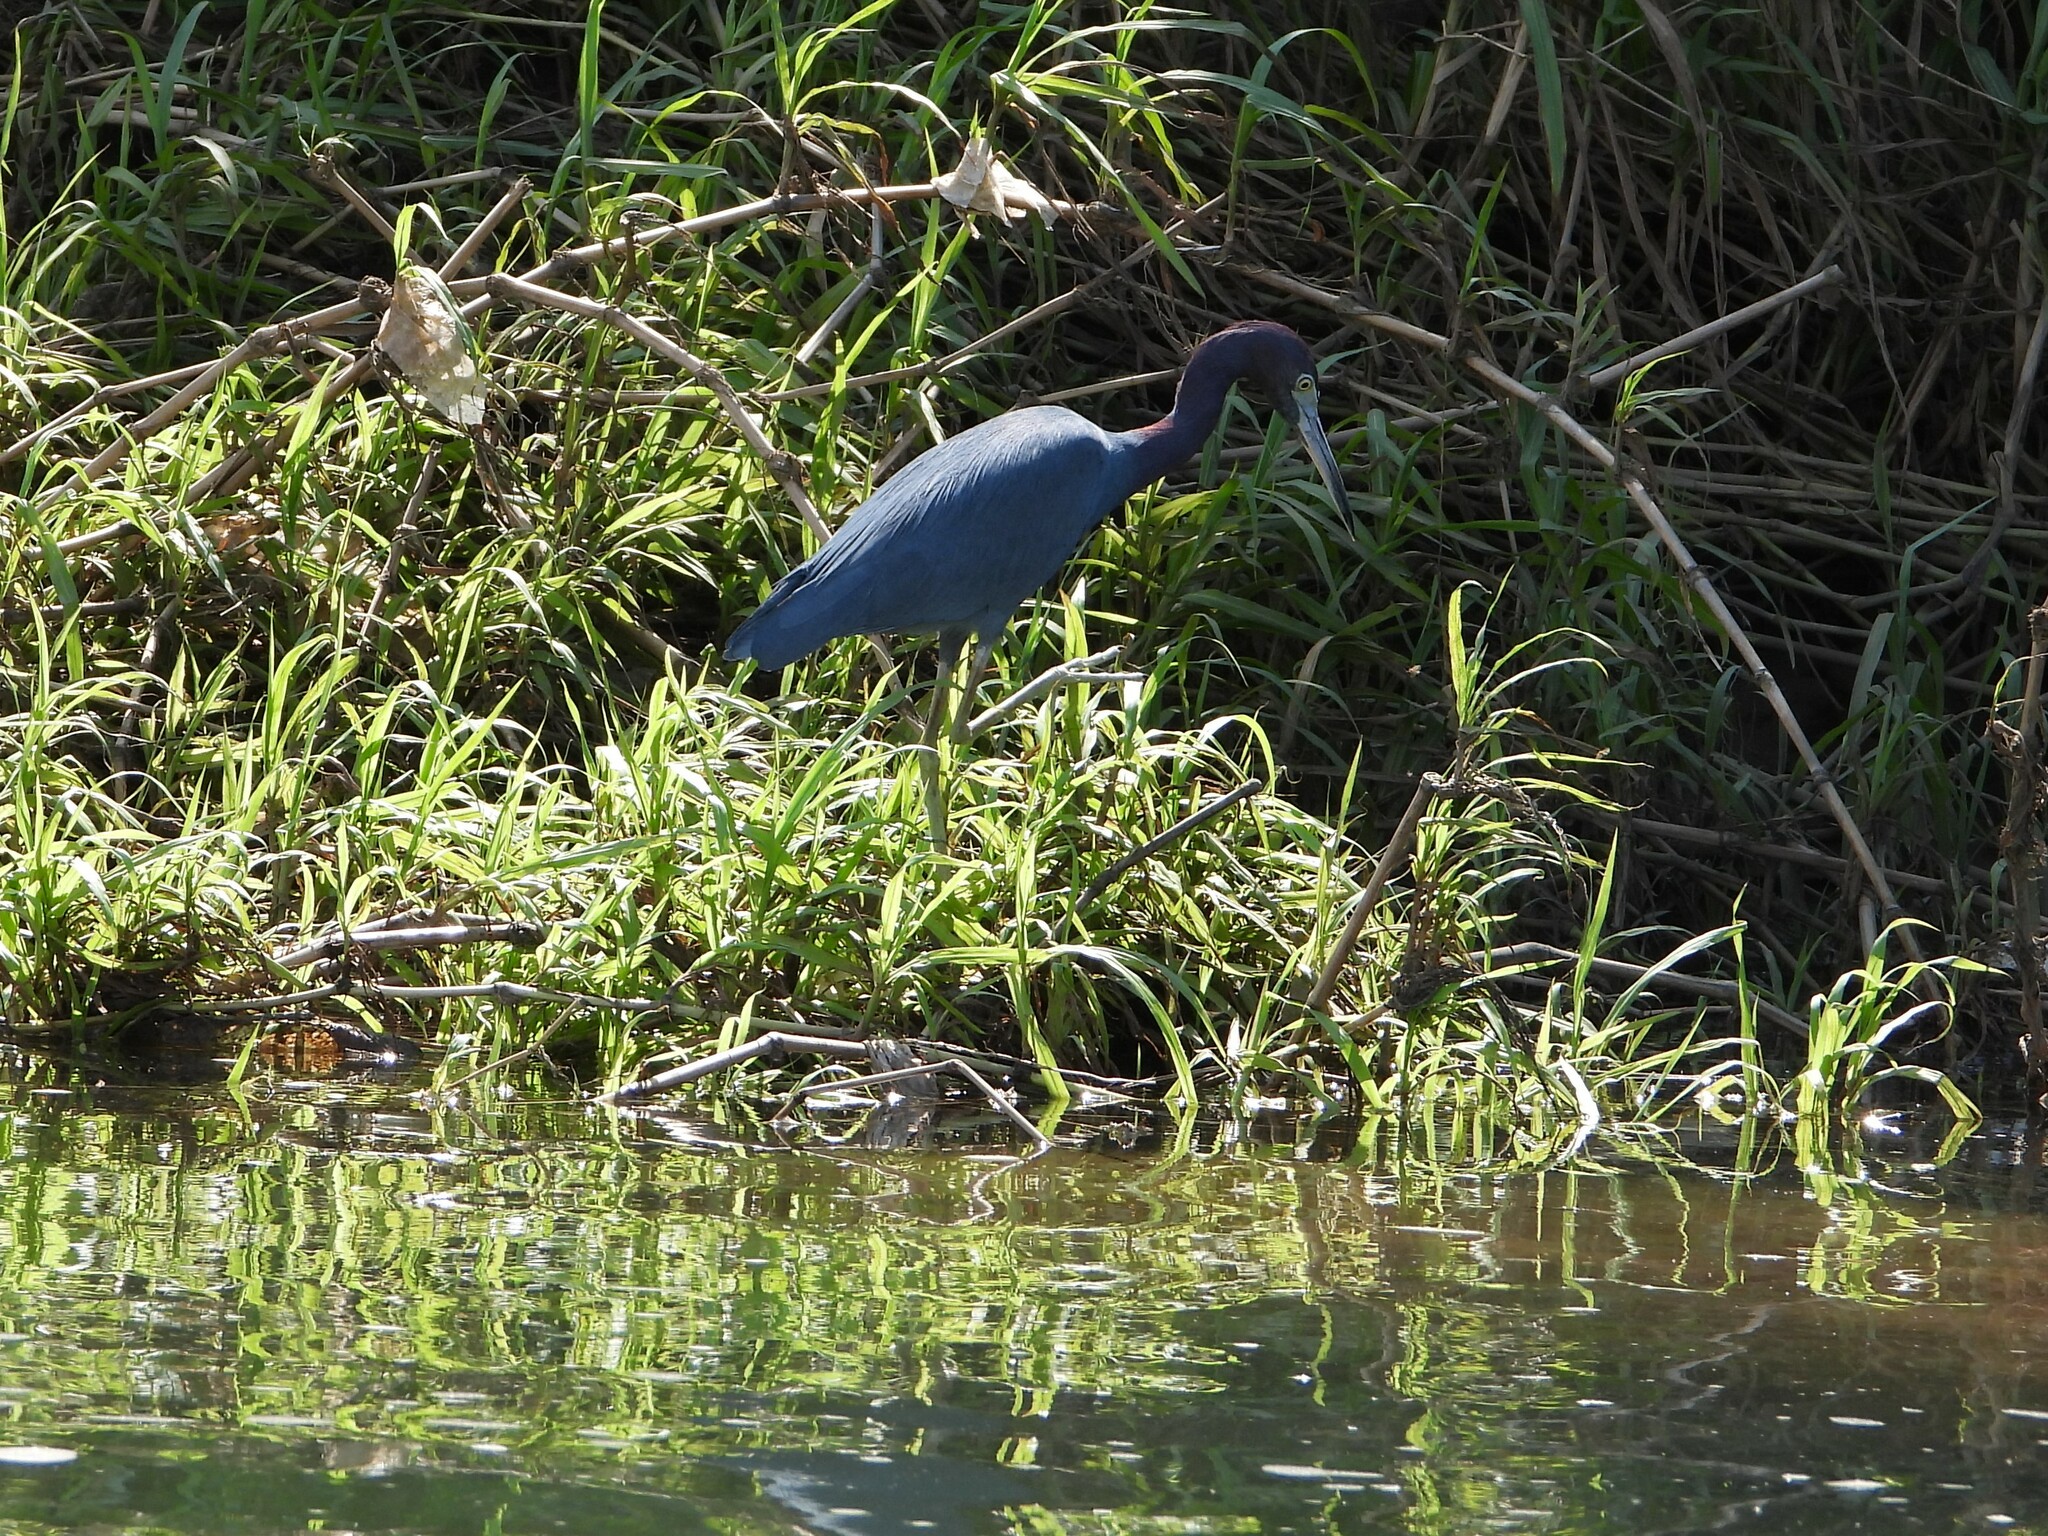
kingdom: Animalia
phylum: Chordata
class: Aves
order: Pelecaniformes
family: Ardeidae
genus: Egretta
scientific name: Egretta caerulea
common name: Little blue heron
